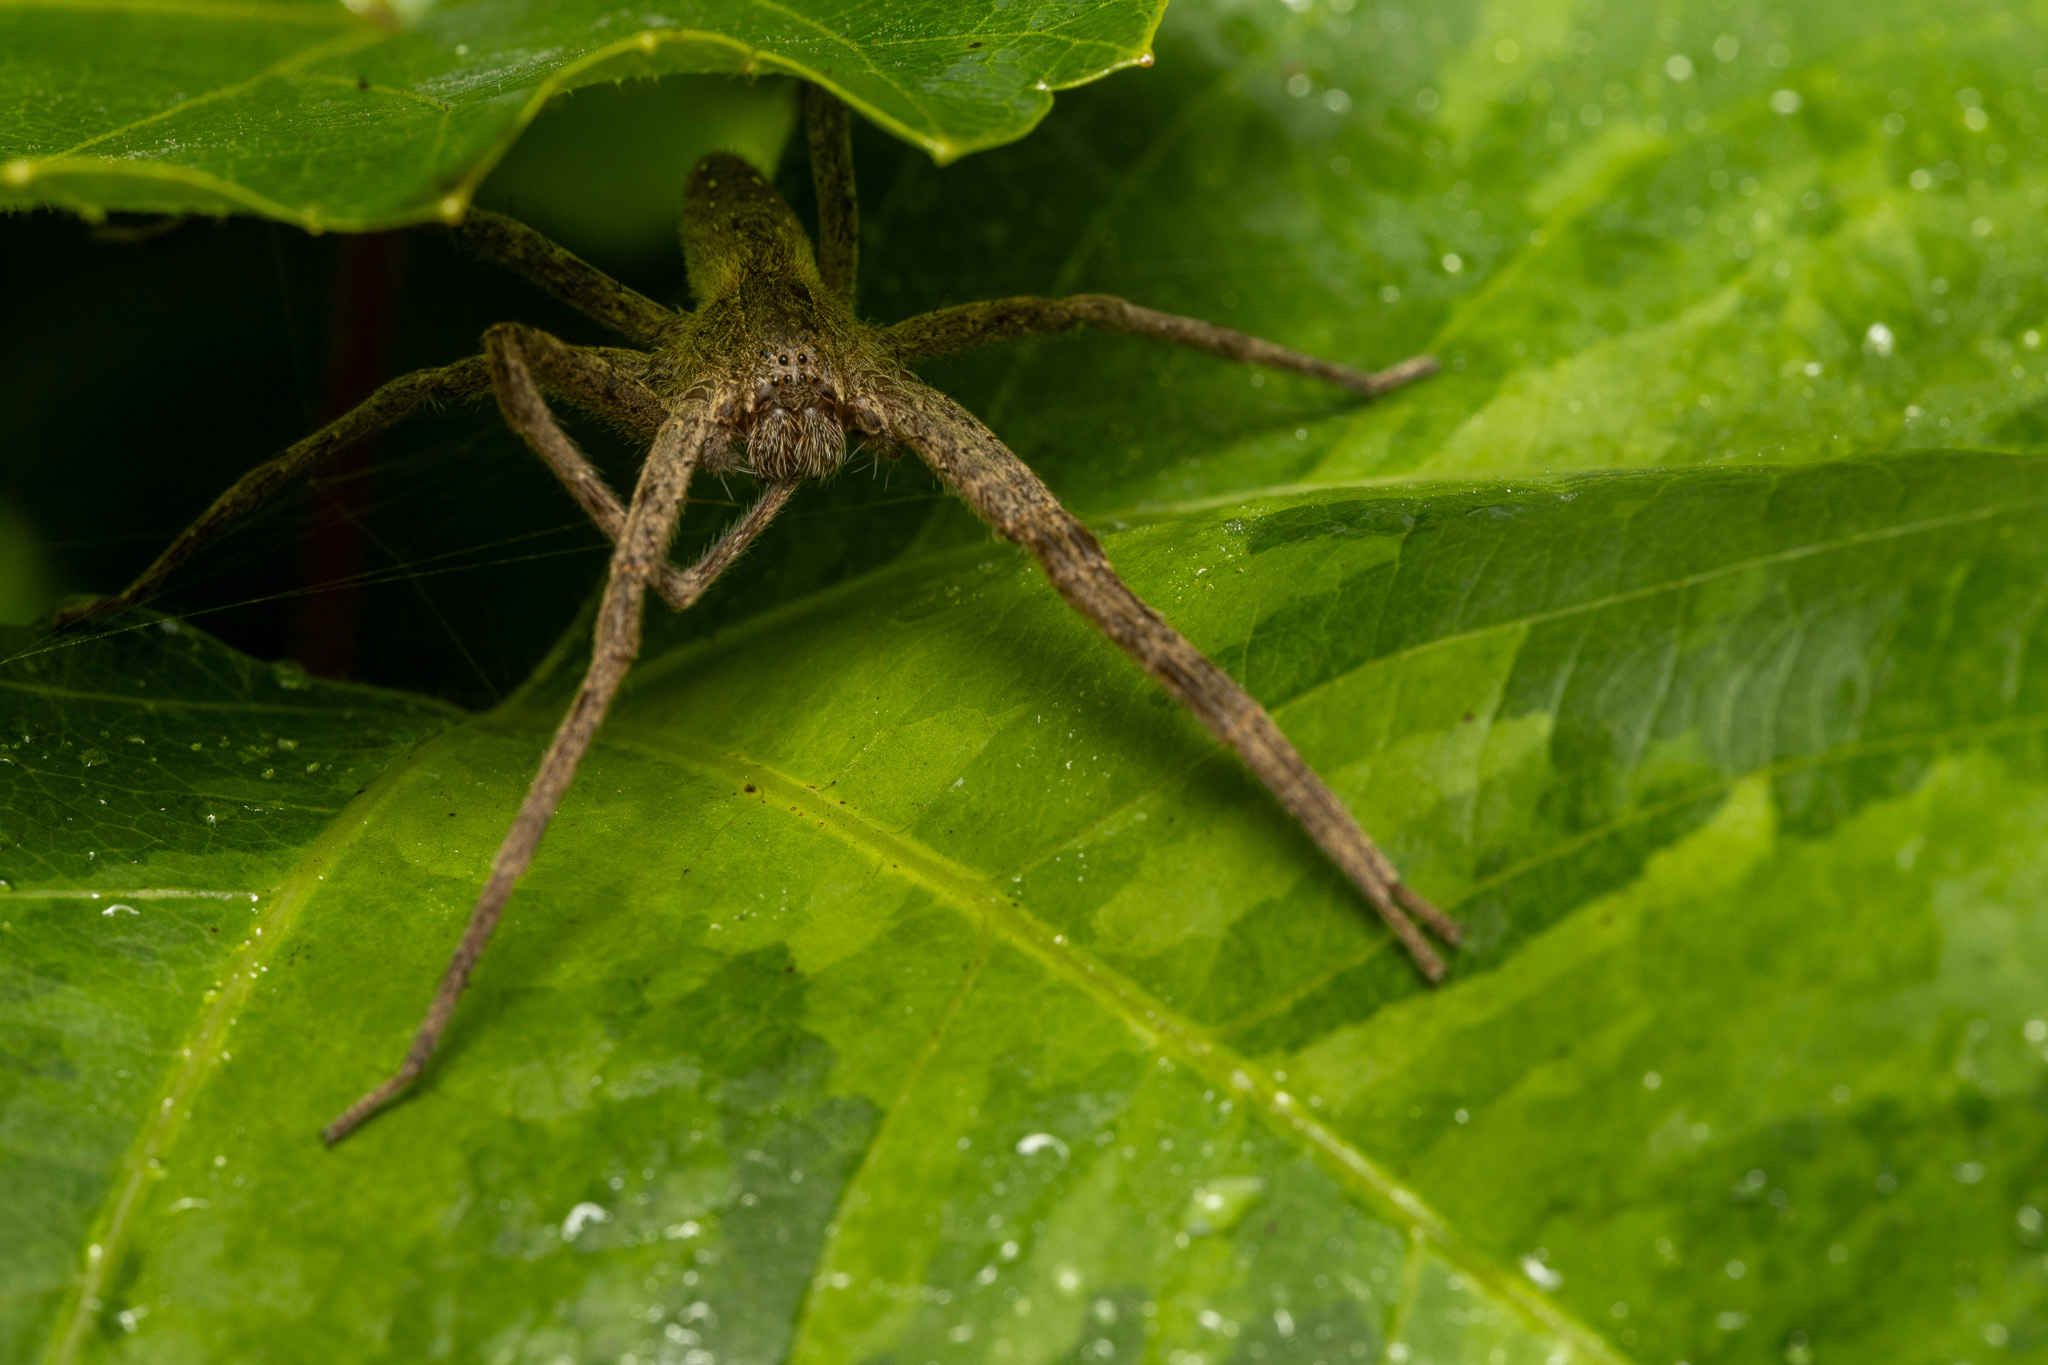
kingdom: Animalia
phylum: Arthropoda
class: Arachnida
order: Araneae
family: Pisauridae
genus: Pisaurina
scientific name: Pisaurina mira
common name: American nursery web spider
